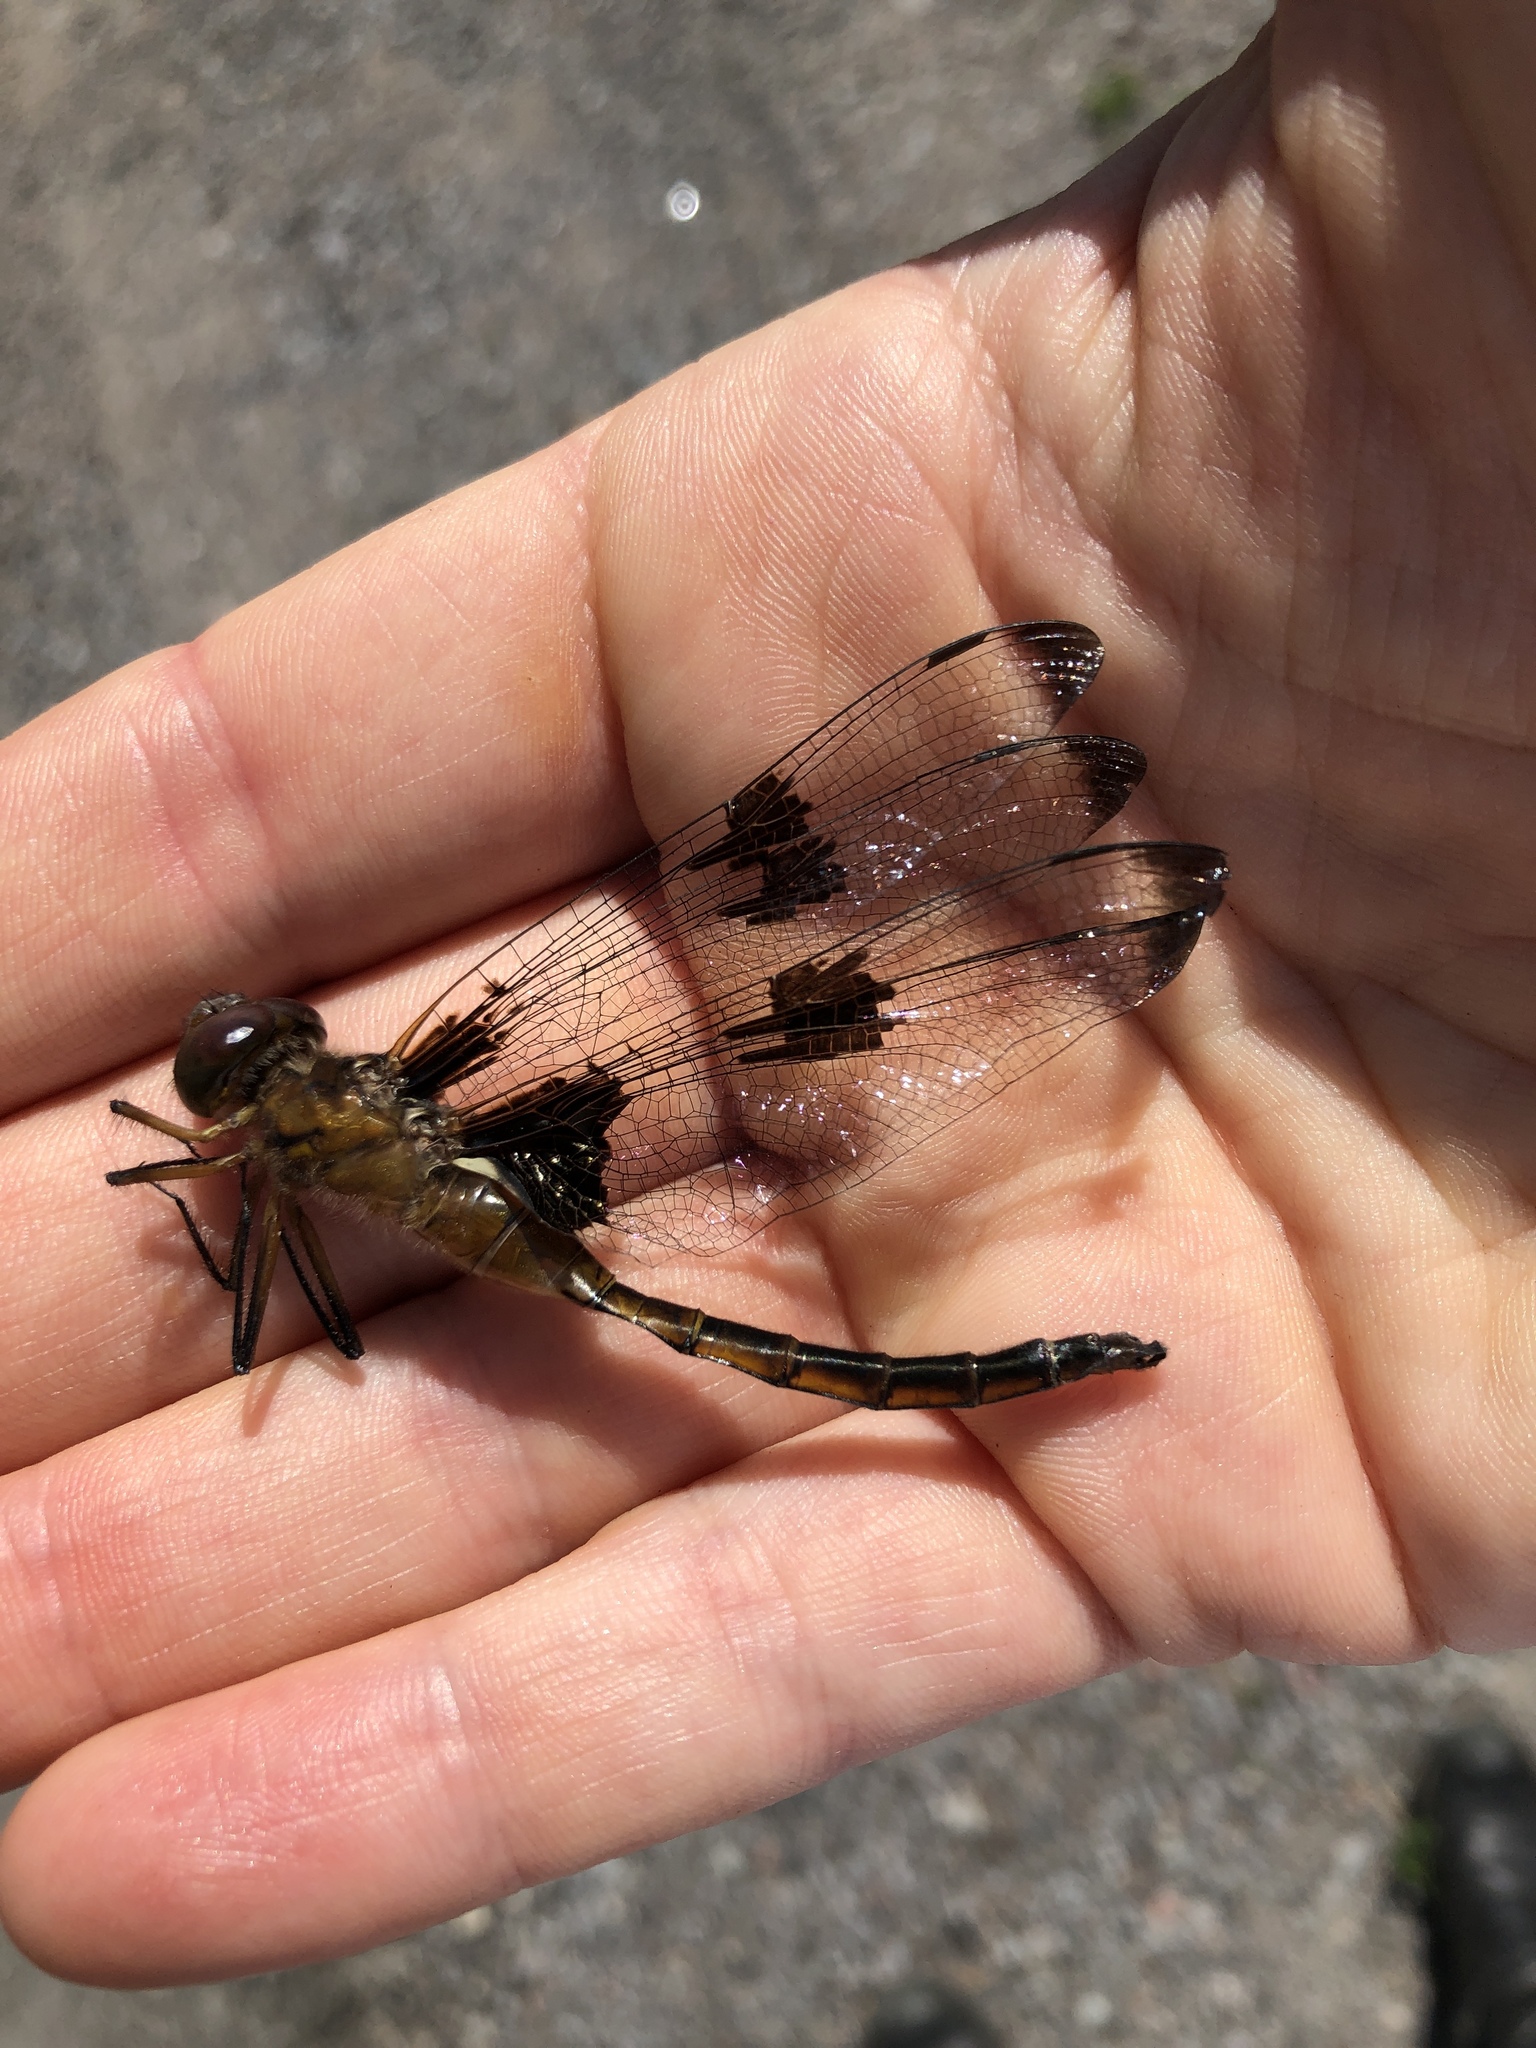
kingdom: Animalia
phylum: Arthropoda
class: Insecta
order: Odonata
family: Corduliidae
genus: Epitheca
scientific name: Epitheca princeps
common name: Prince baskettail
